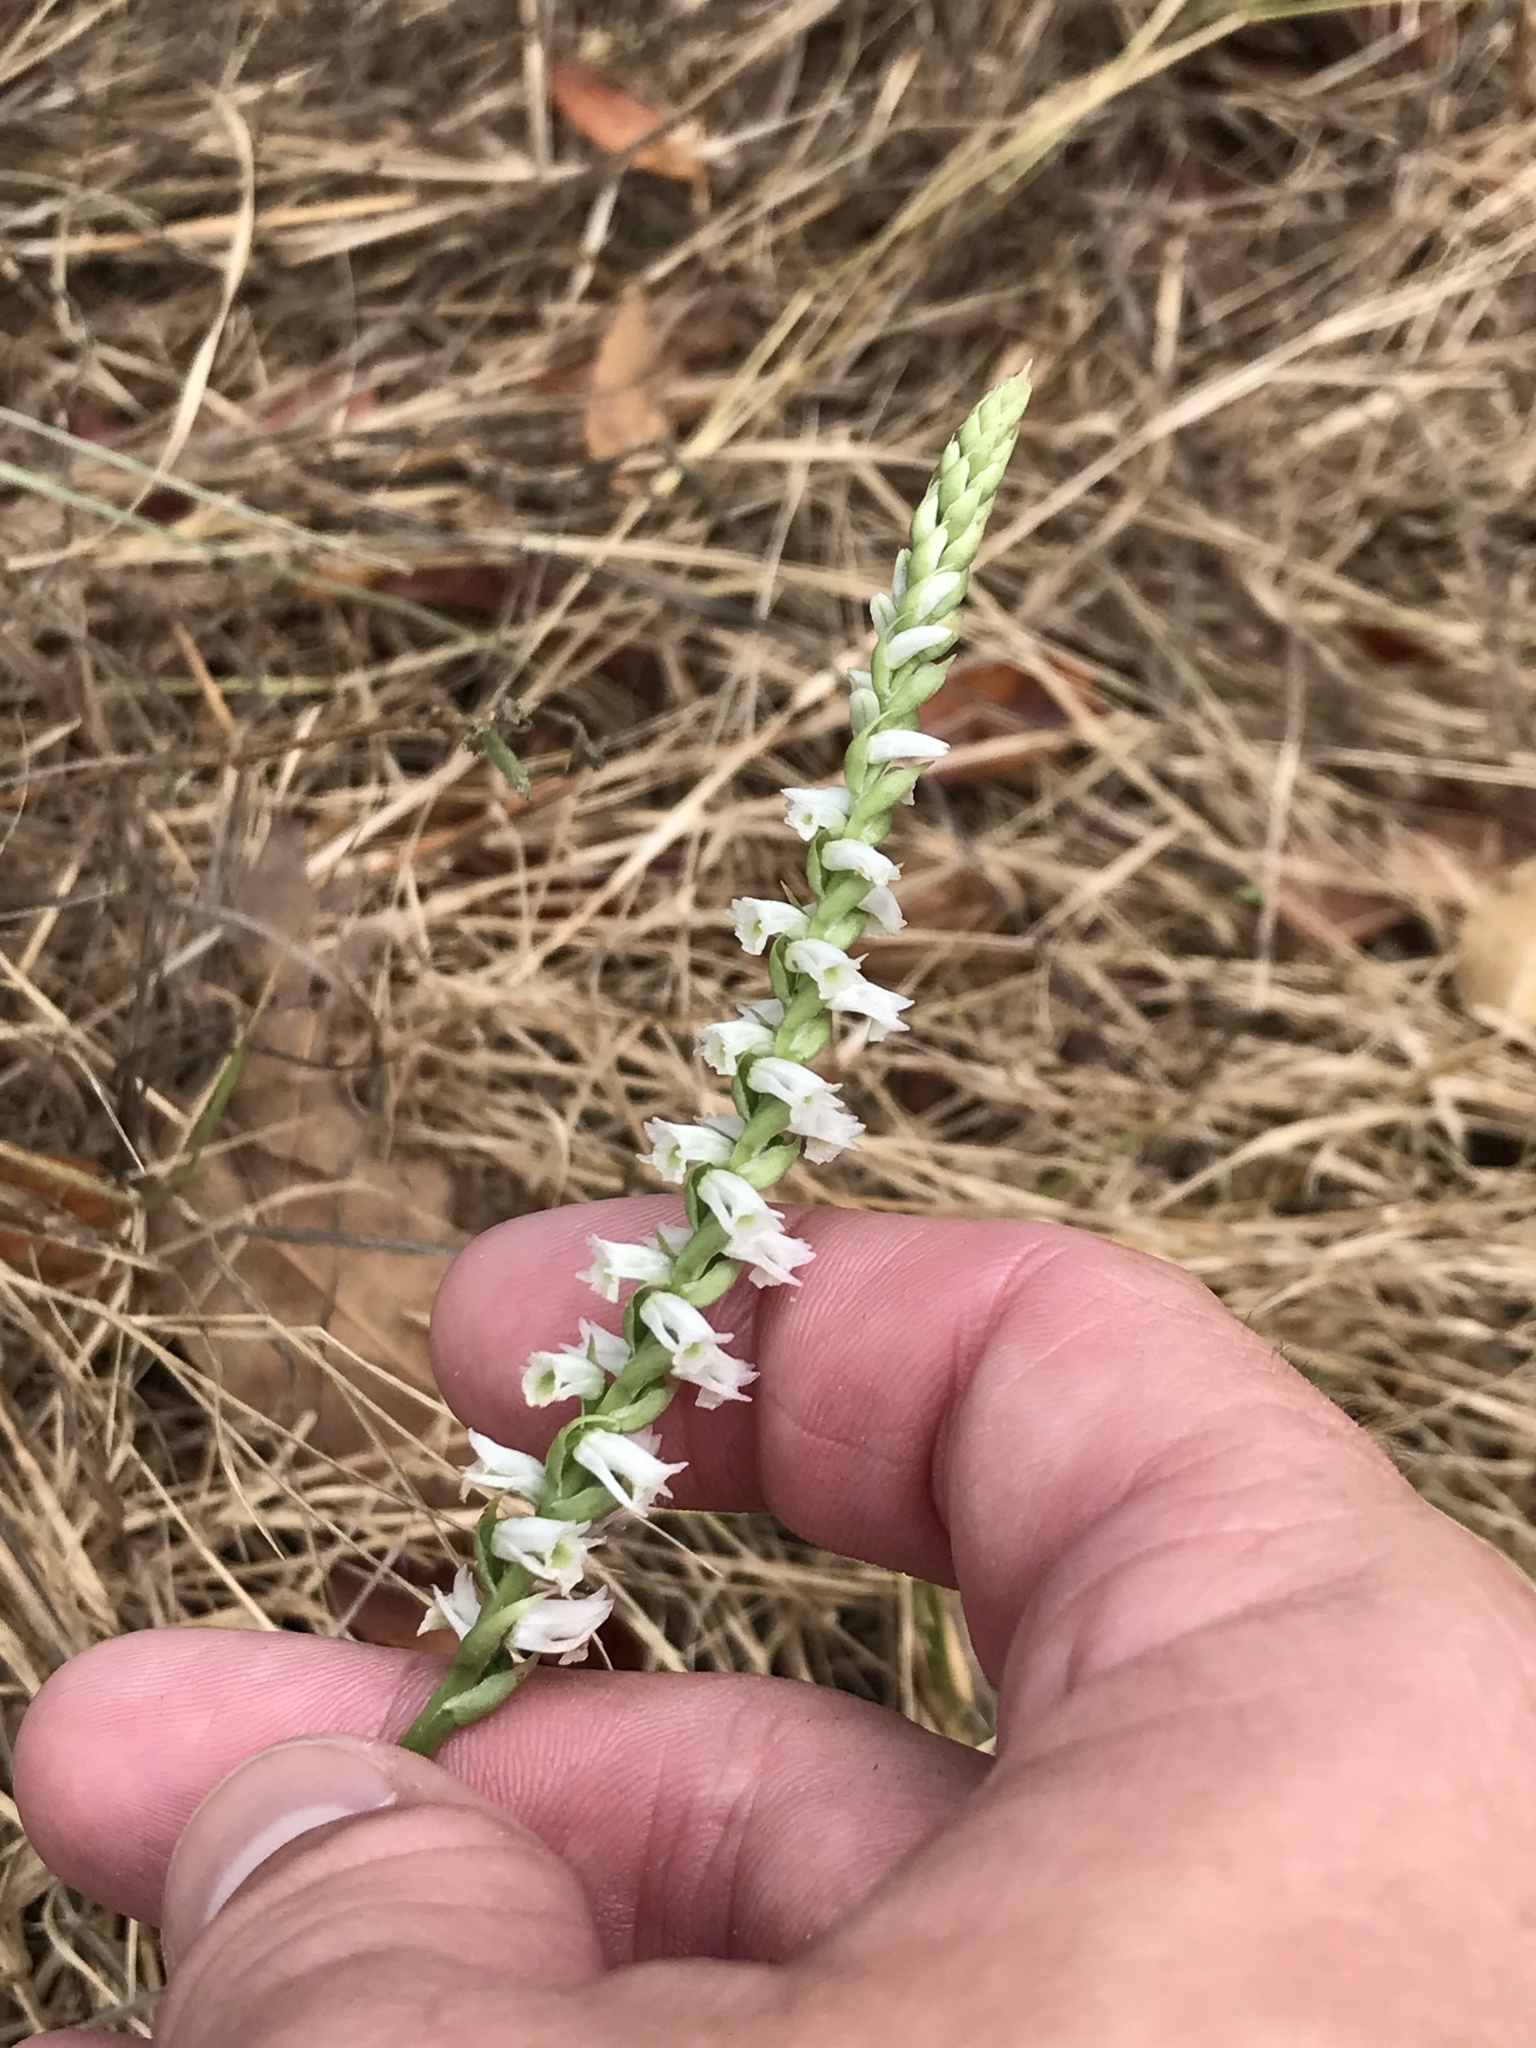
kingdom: Plantae
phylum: Tracheophyta
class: Liliopsida
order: Asparagales
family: Orchidaceae
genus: Spiranthes
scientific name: Spiranthes lacera
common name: Northern slender ladies'-tresses
